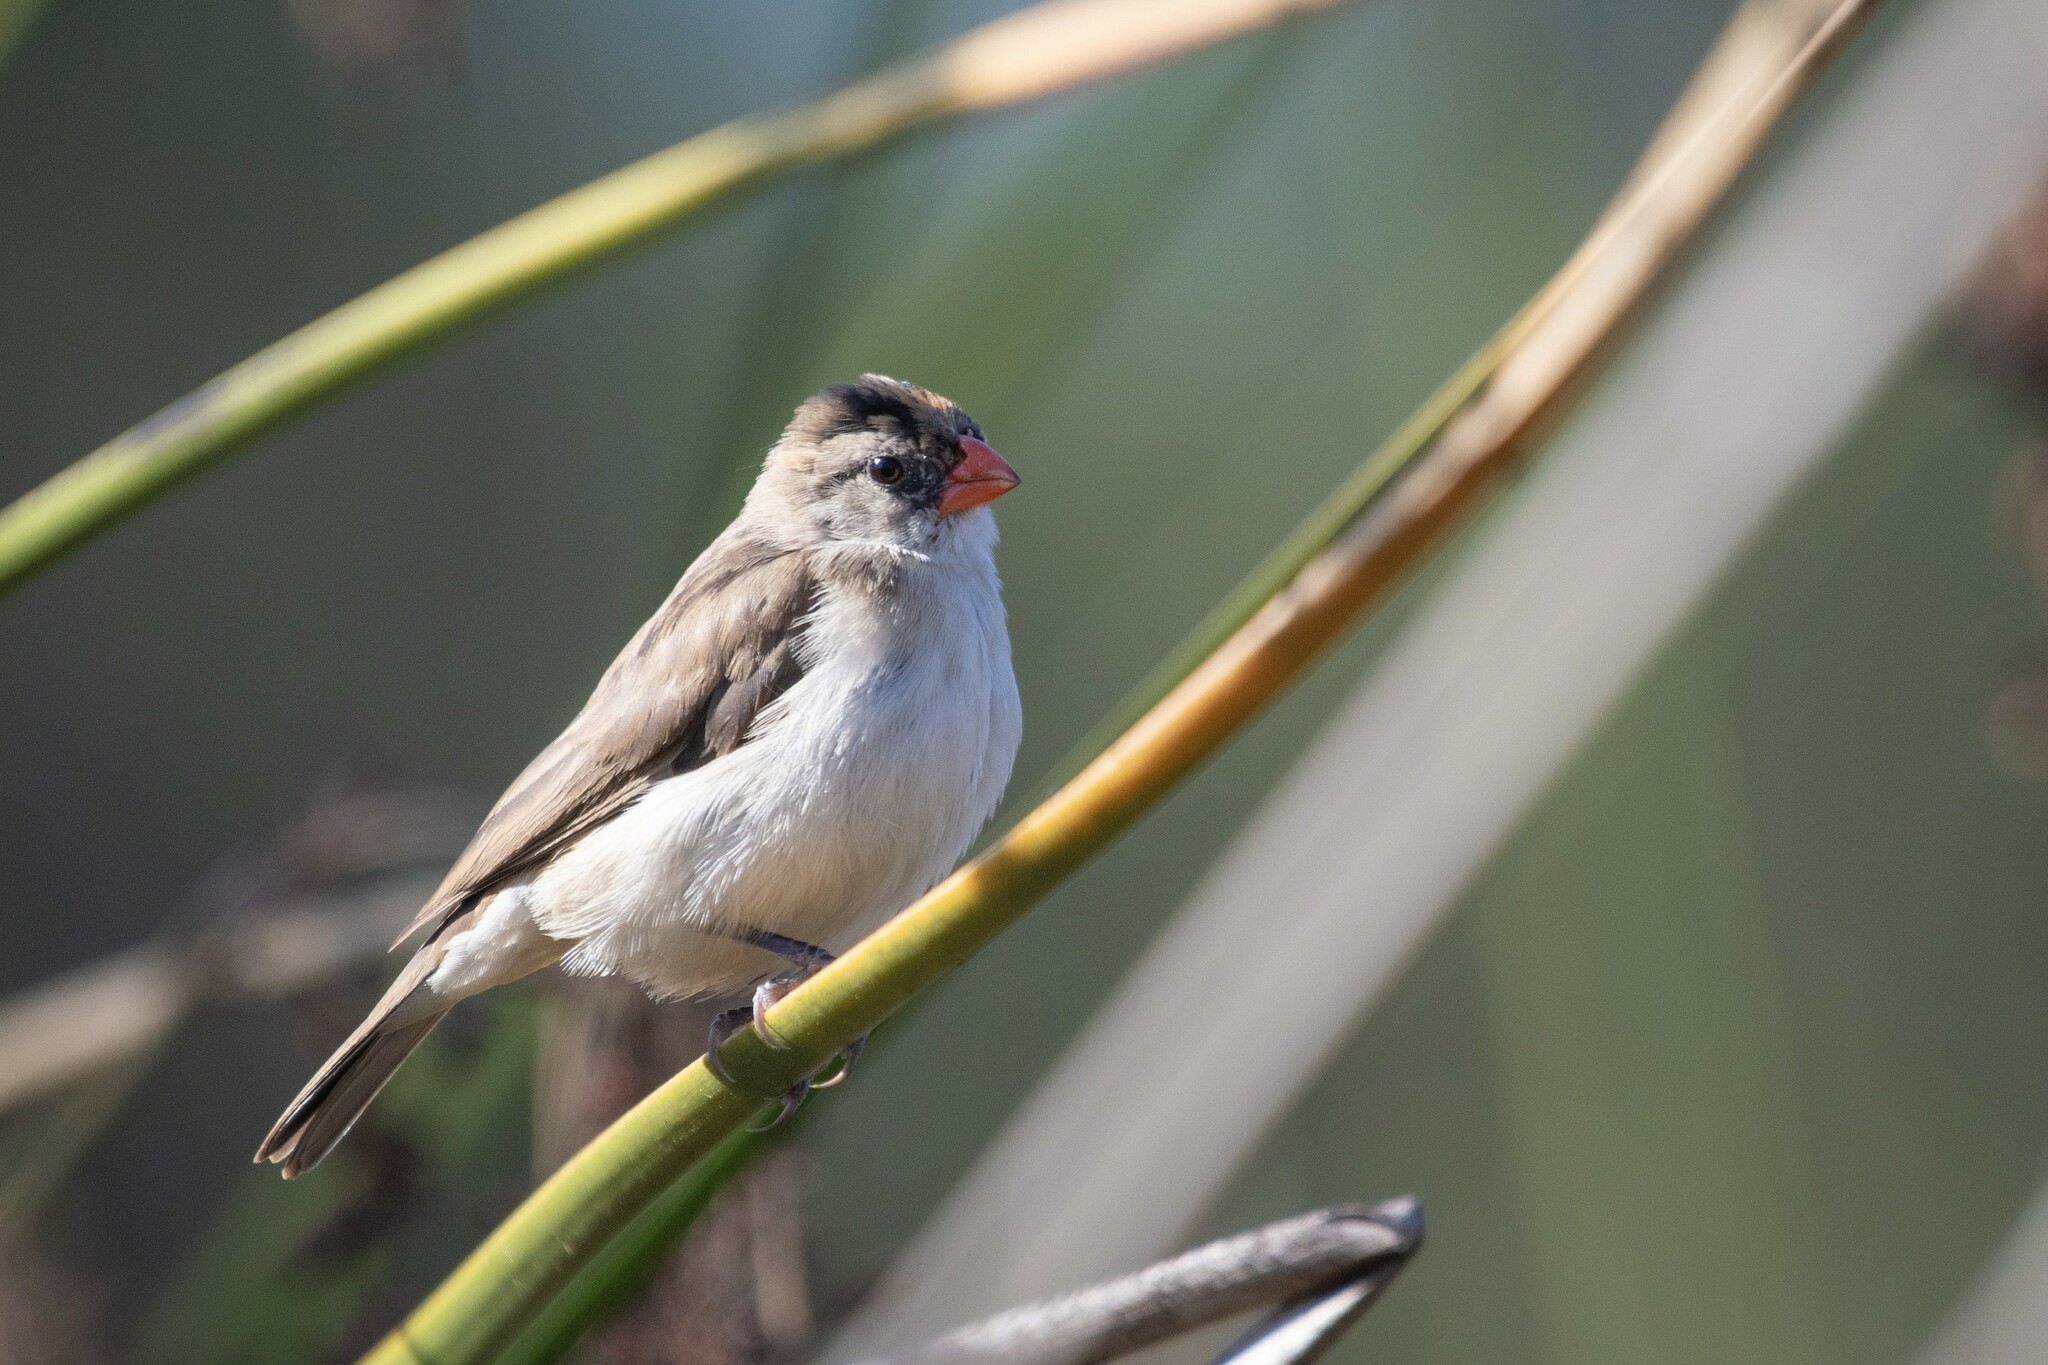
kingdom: Animalia
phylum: Chordata
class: Aves
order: Passeriformes
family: Viduidae
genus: Vidua
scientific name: Vidua macroura
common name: Pin-tailed whydah
